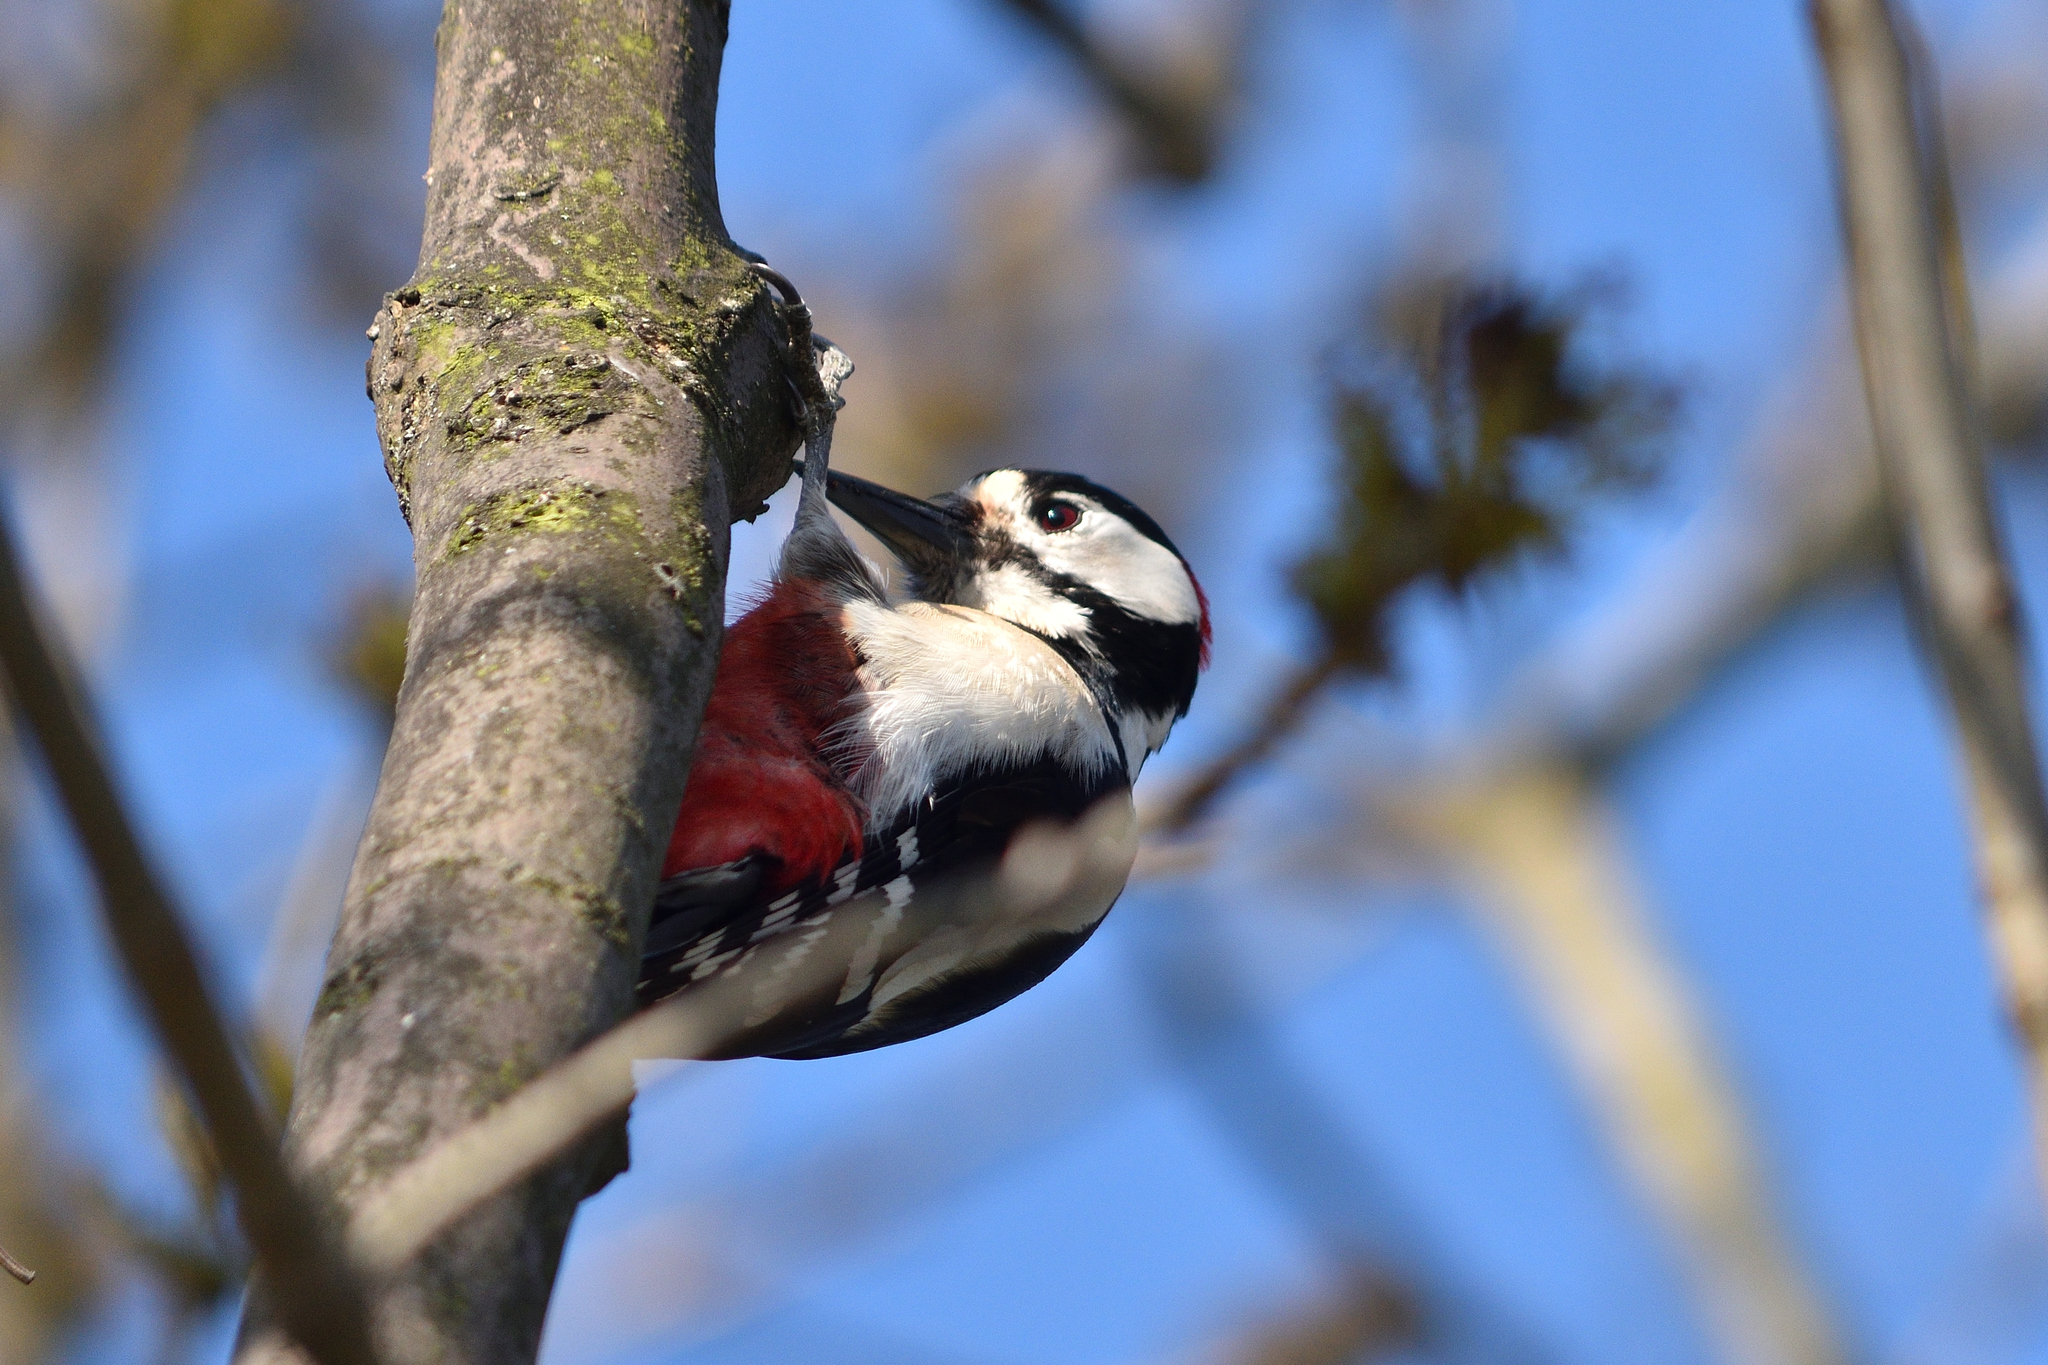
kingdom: Animalia
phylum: Chordata
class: Aves
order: Piciformes
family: Picidae
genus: Dendrocopos
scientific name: Dendrocopos major
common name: Great spotted woodpecker
